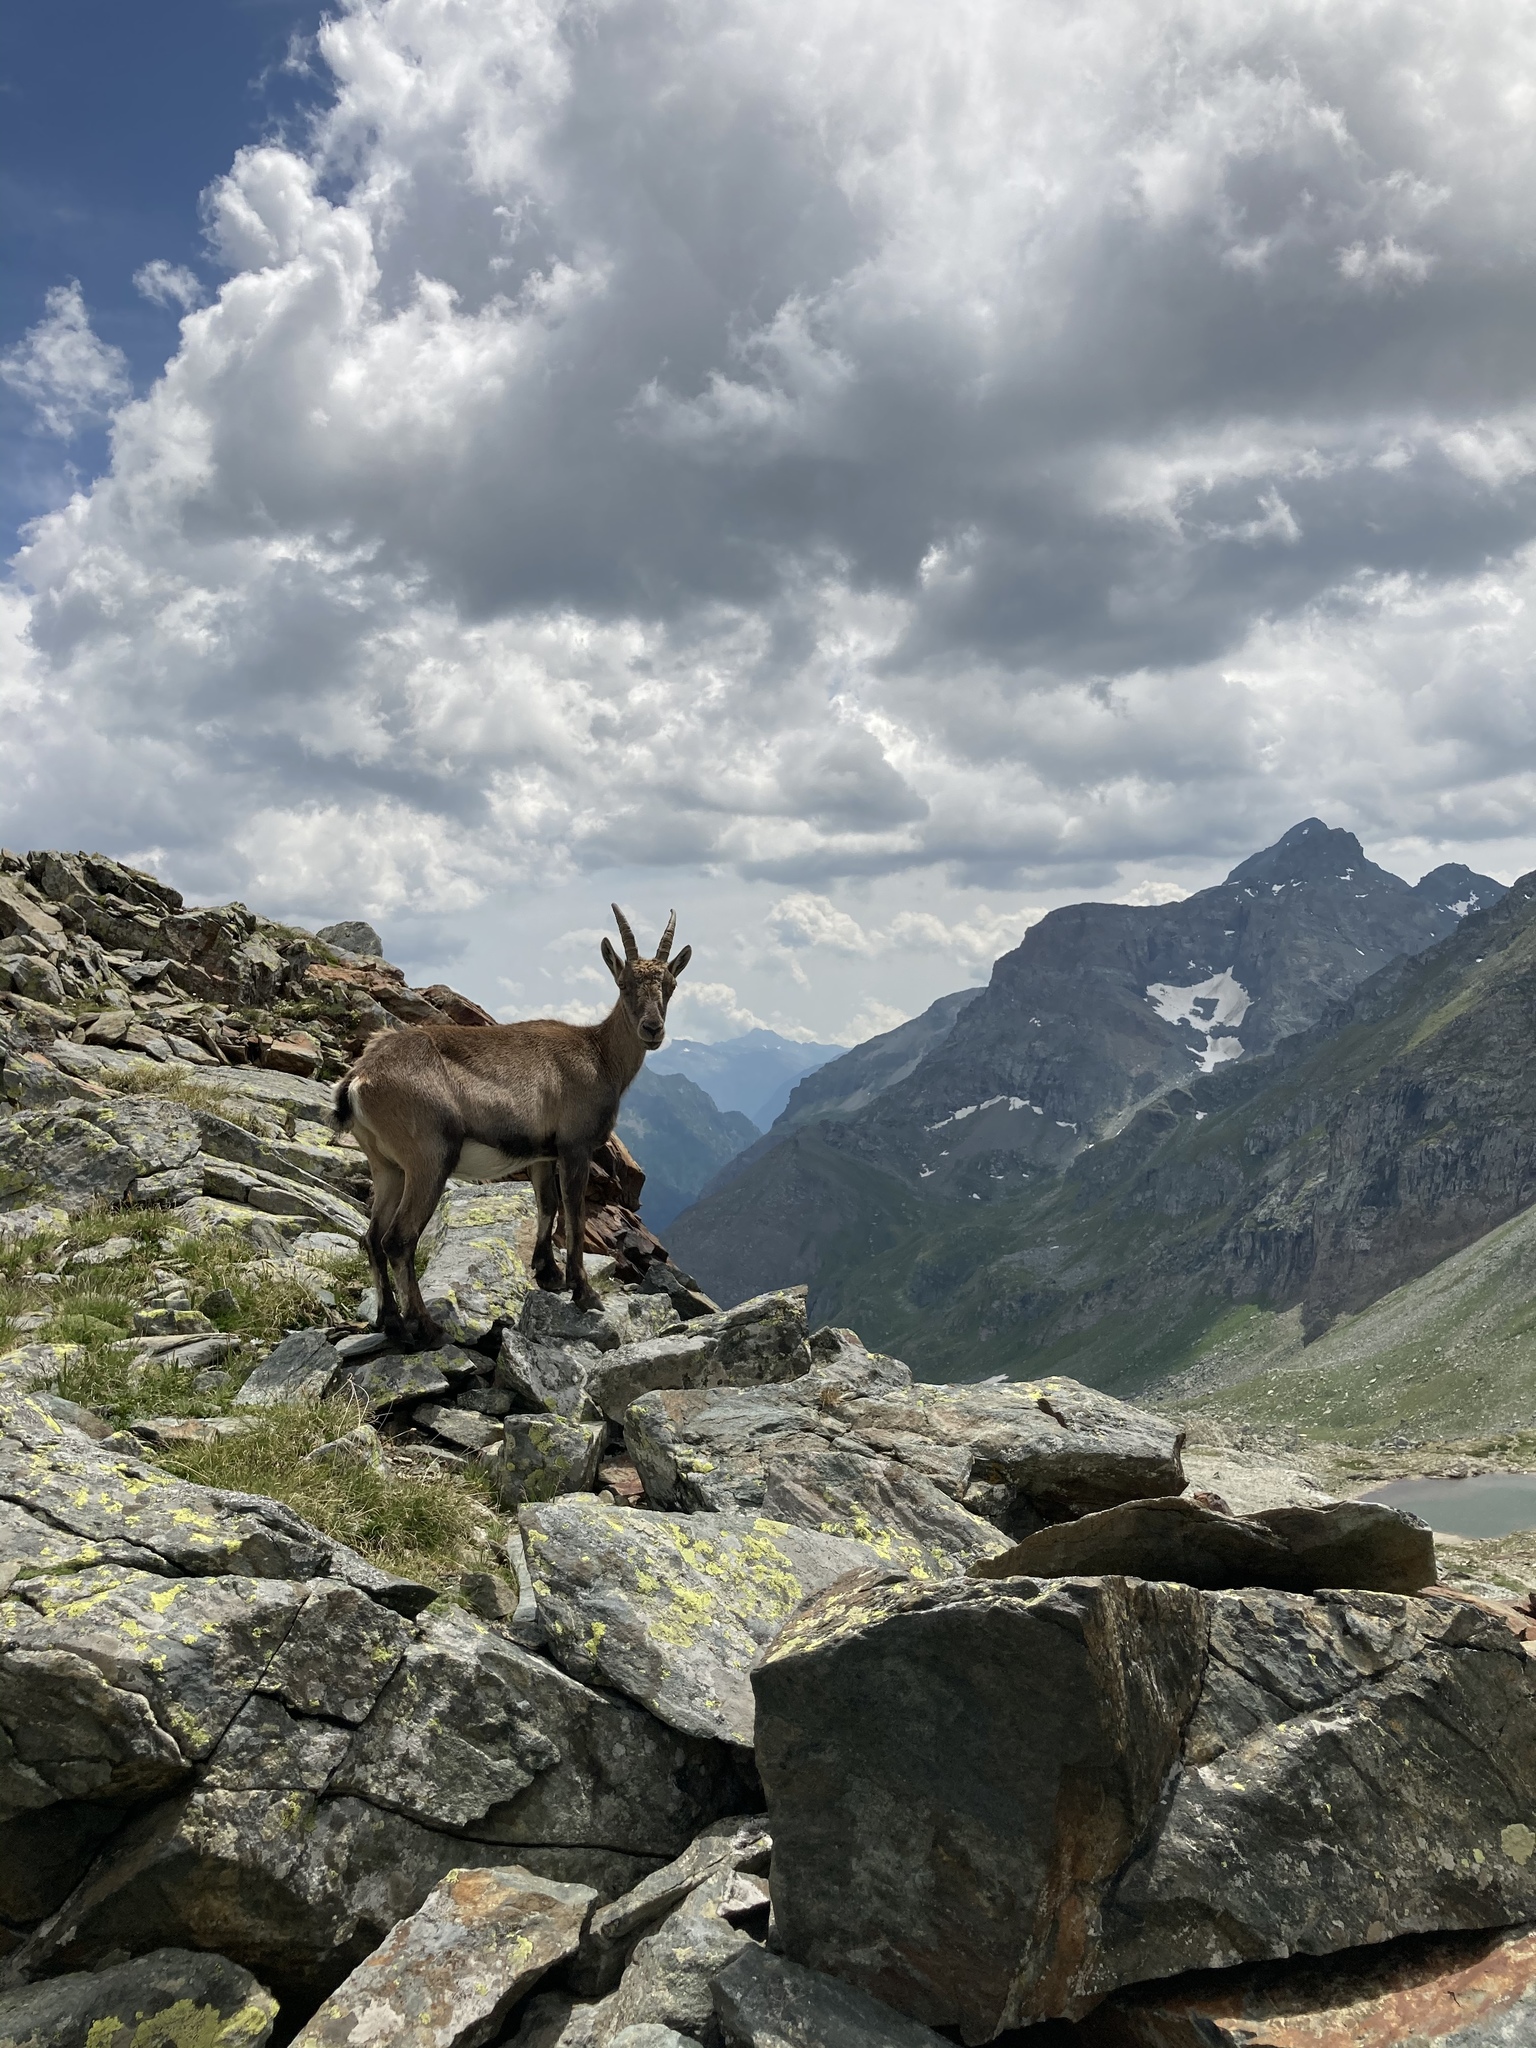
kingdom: Animalia
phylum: Chordata
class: Mammalia
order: Artiodactyla
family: Bovidae
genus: Capra
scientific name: Capra ibex
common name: Alpine ibex
